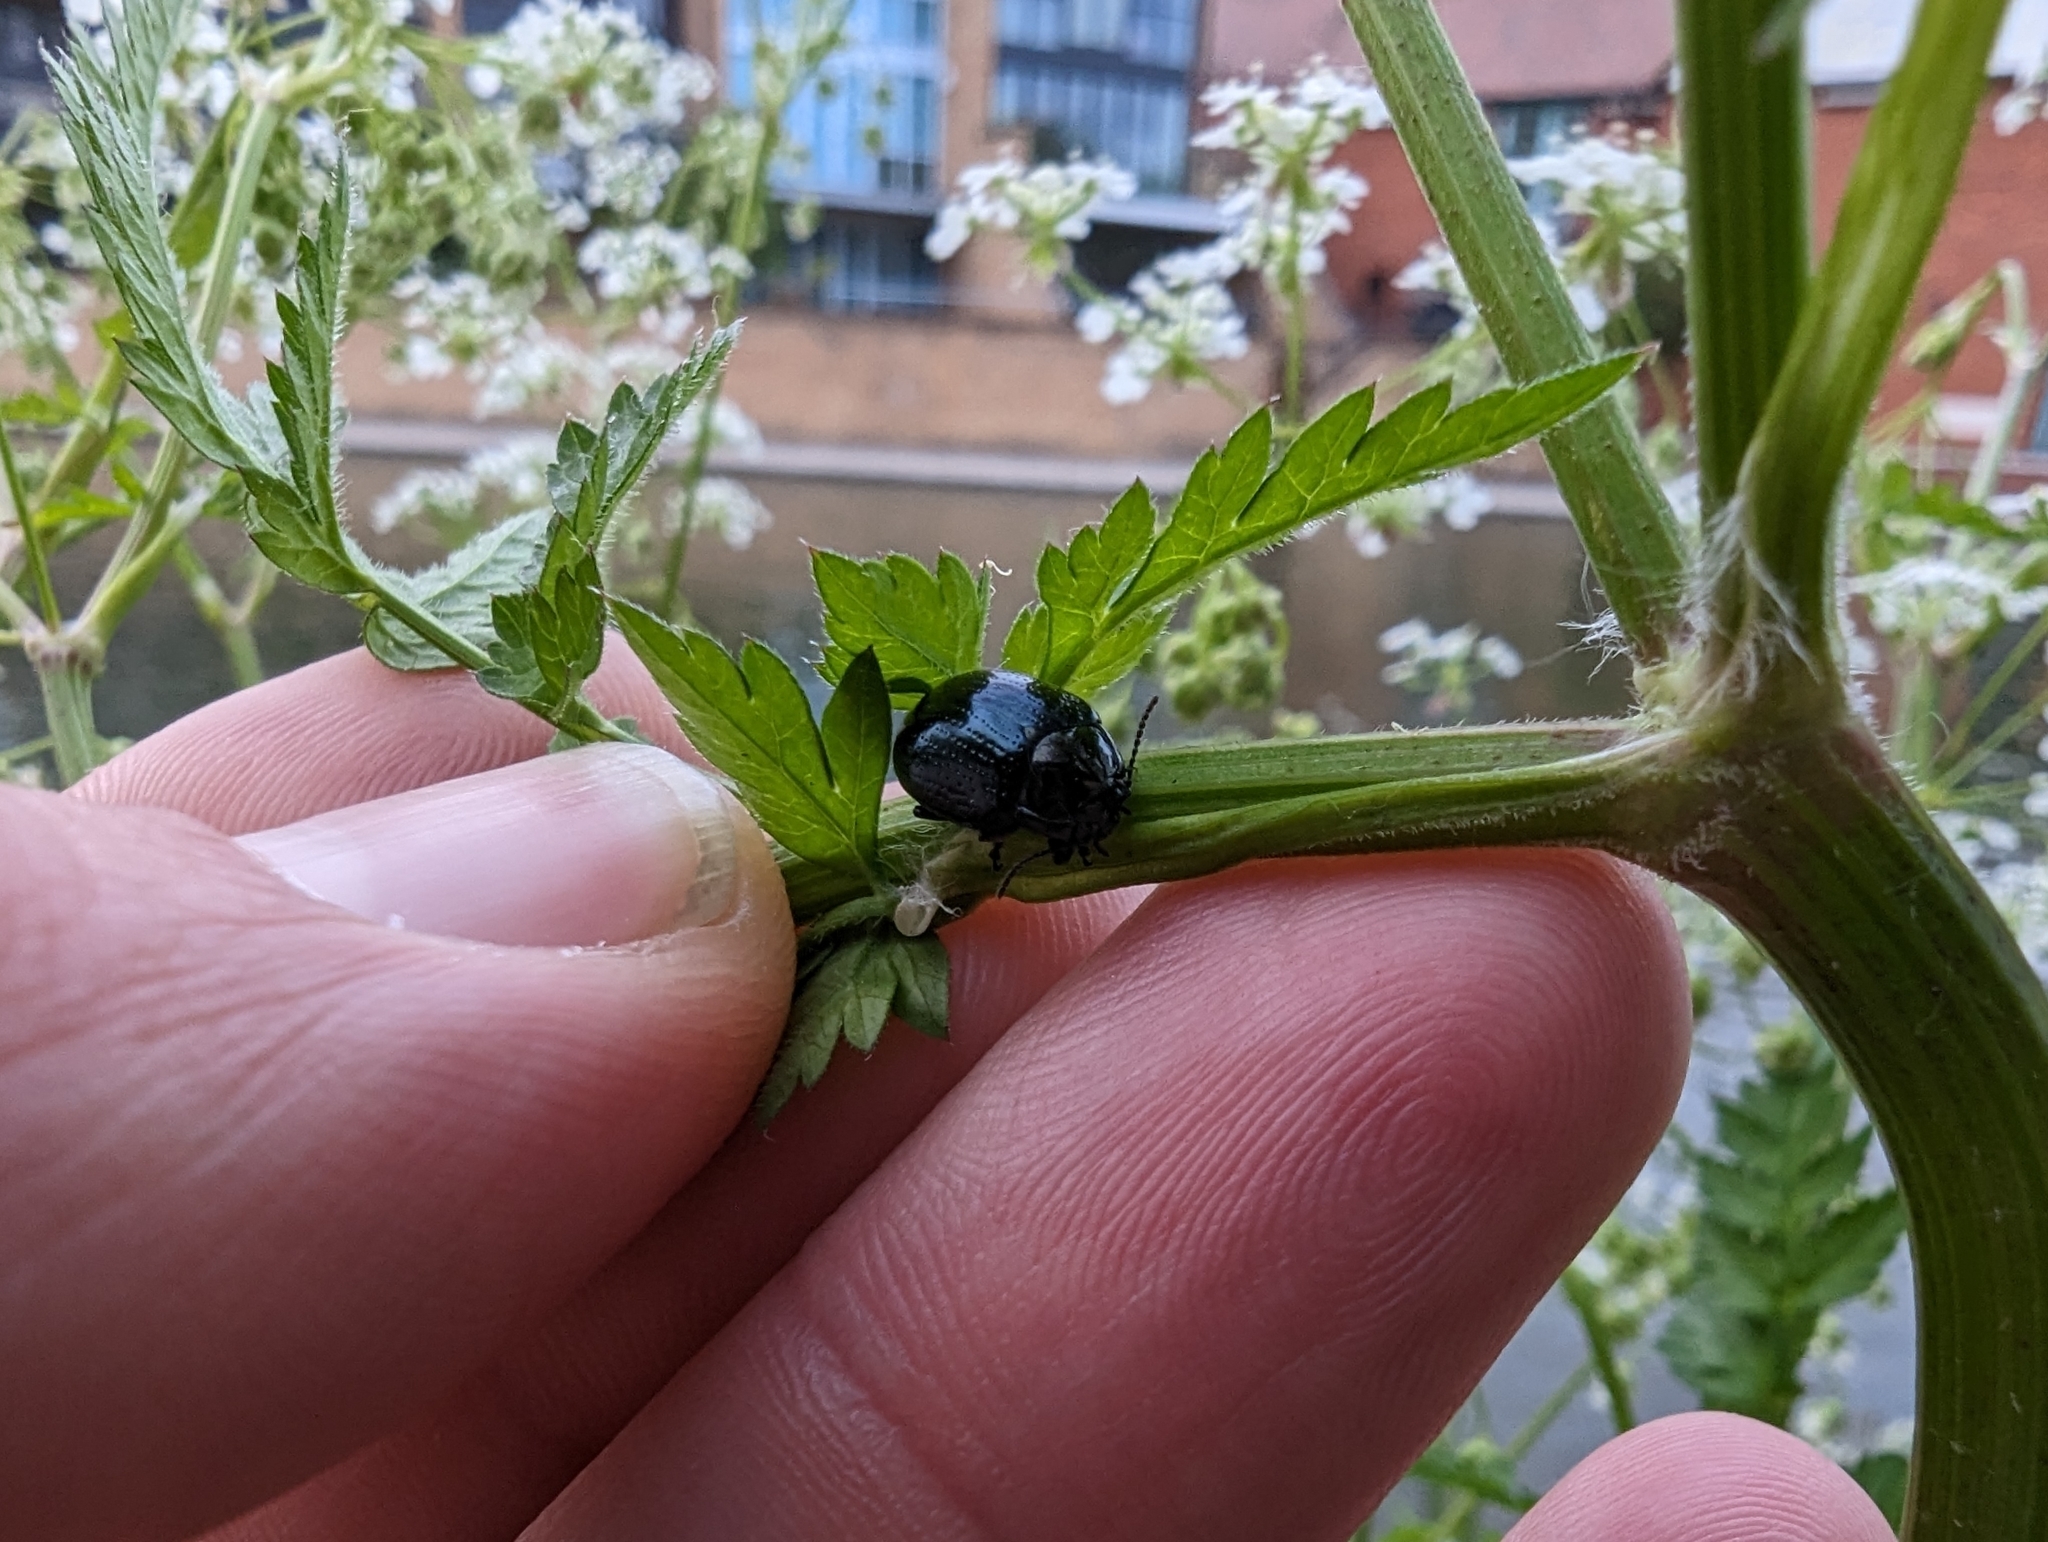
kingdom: Animalia
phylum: Arthropoda
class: Insecta
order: Coleoptera
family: Chrysomelidae
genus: Chrysolina
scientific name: Chrysolina oricalcia
